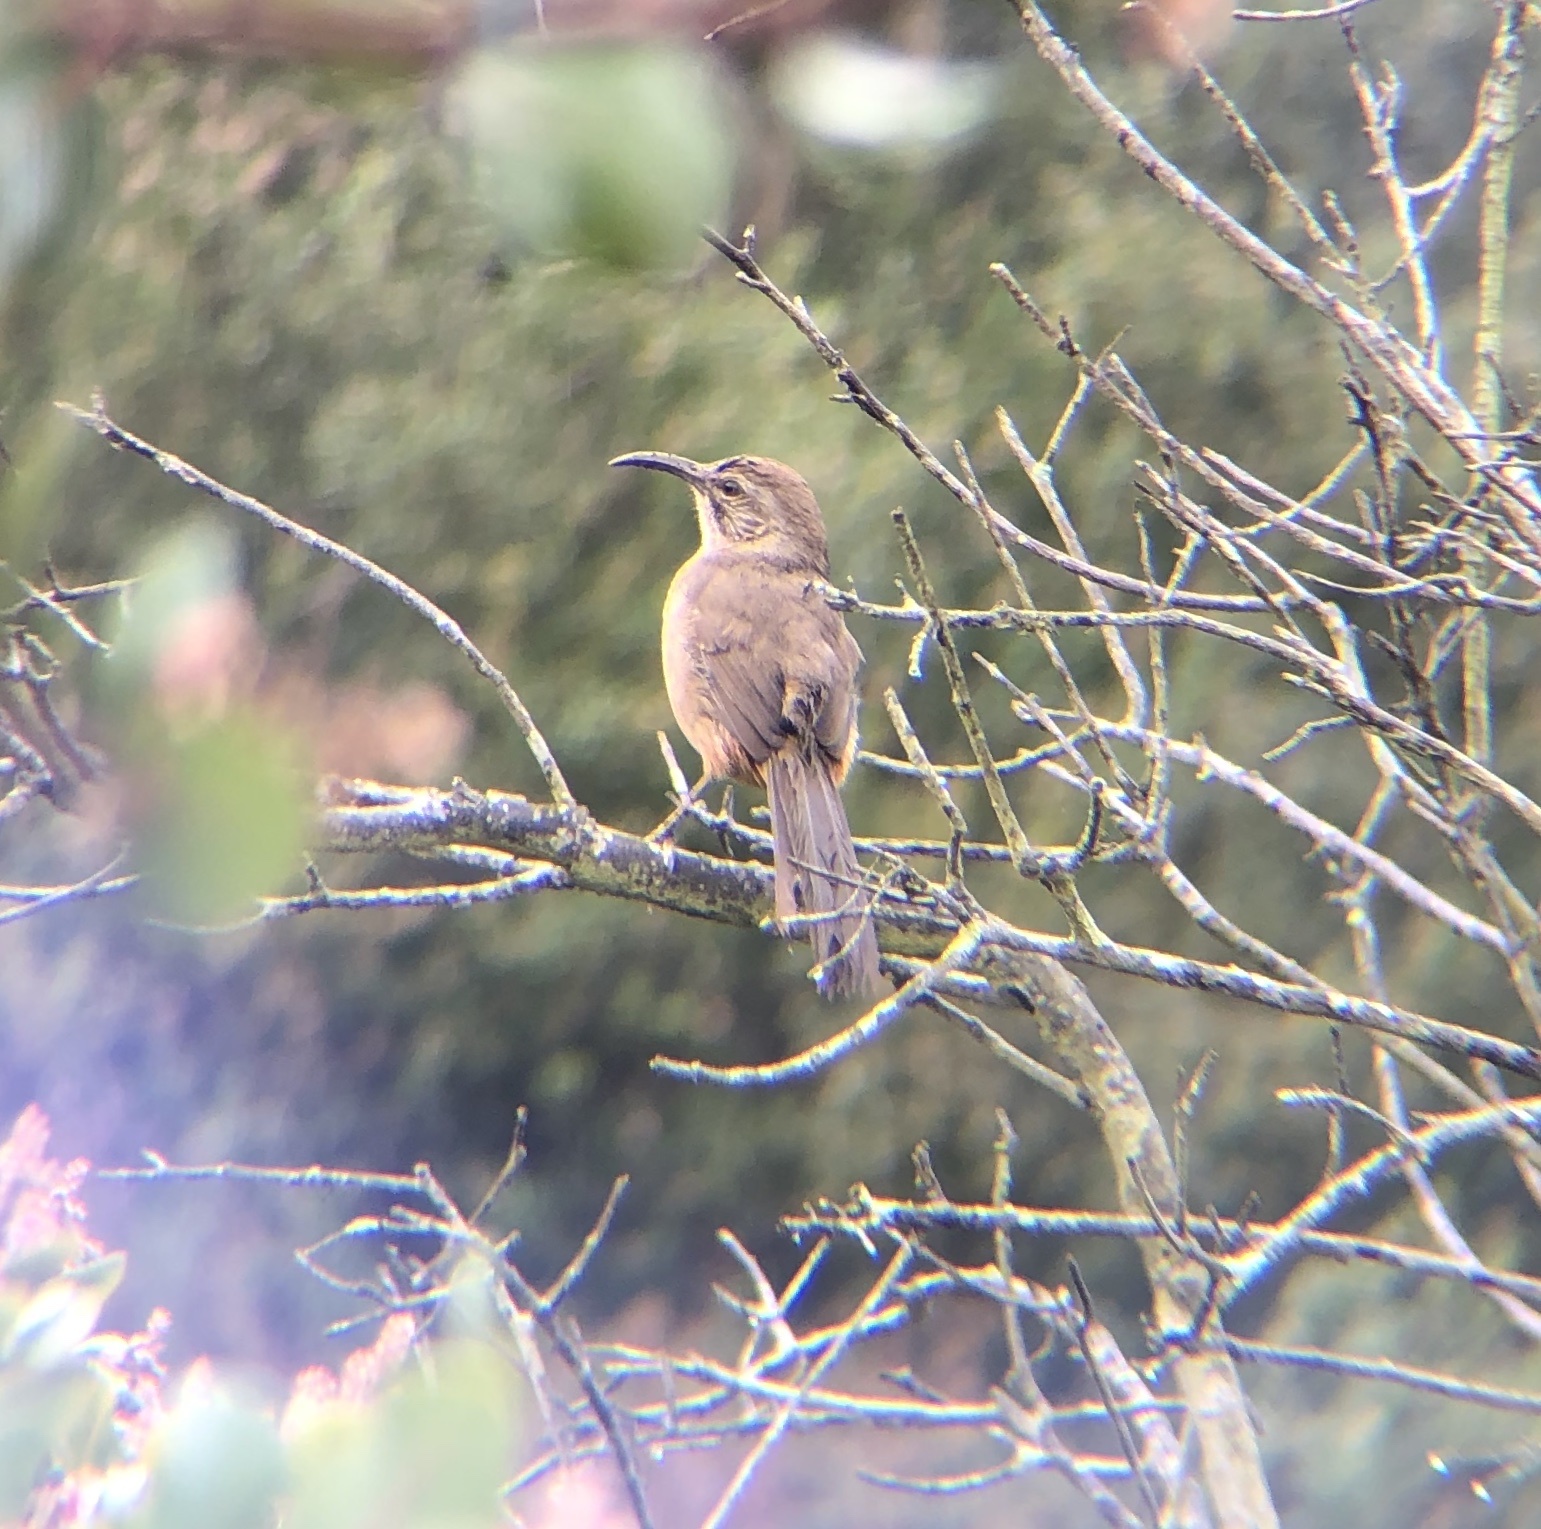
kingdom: Animalia
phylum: Chordata
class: Aves
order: Passeriformes
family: Mimidae
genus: Toxostoma
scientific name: Toxostoma redivivum
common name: California thrasher
